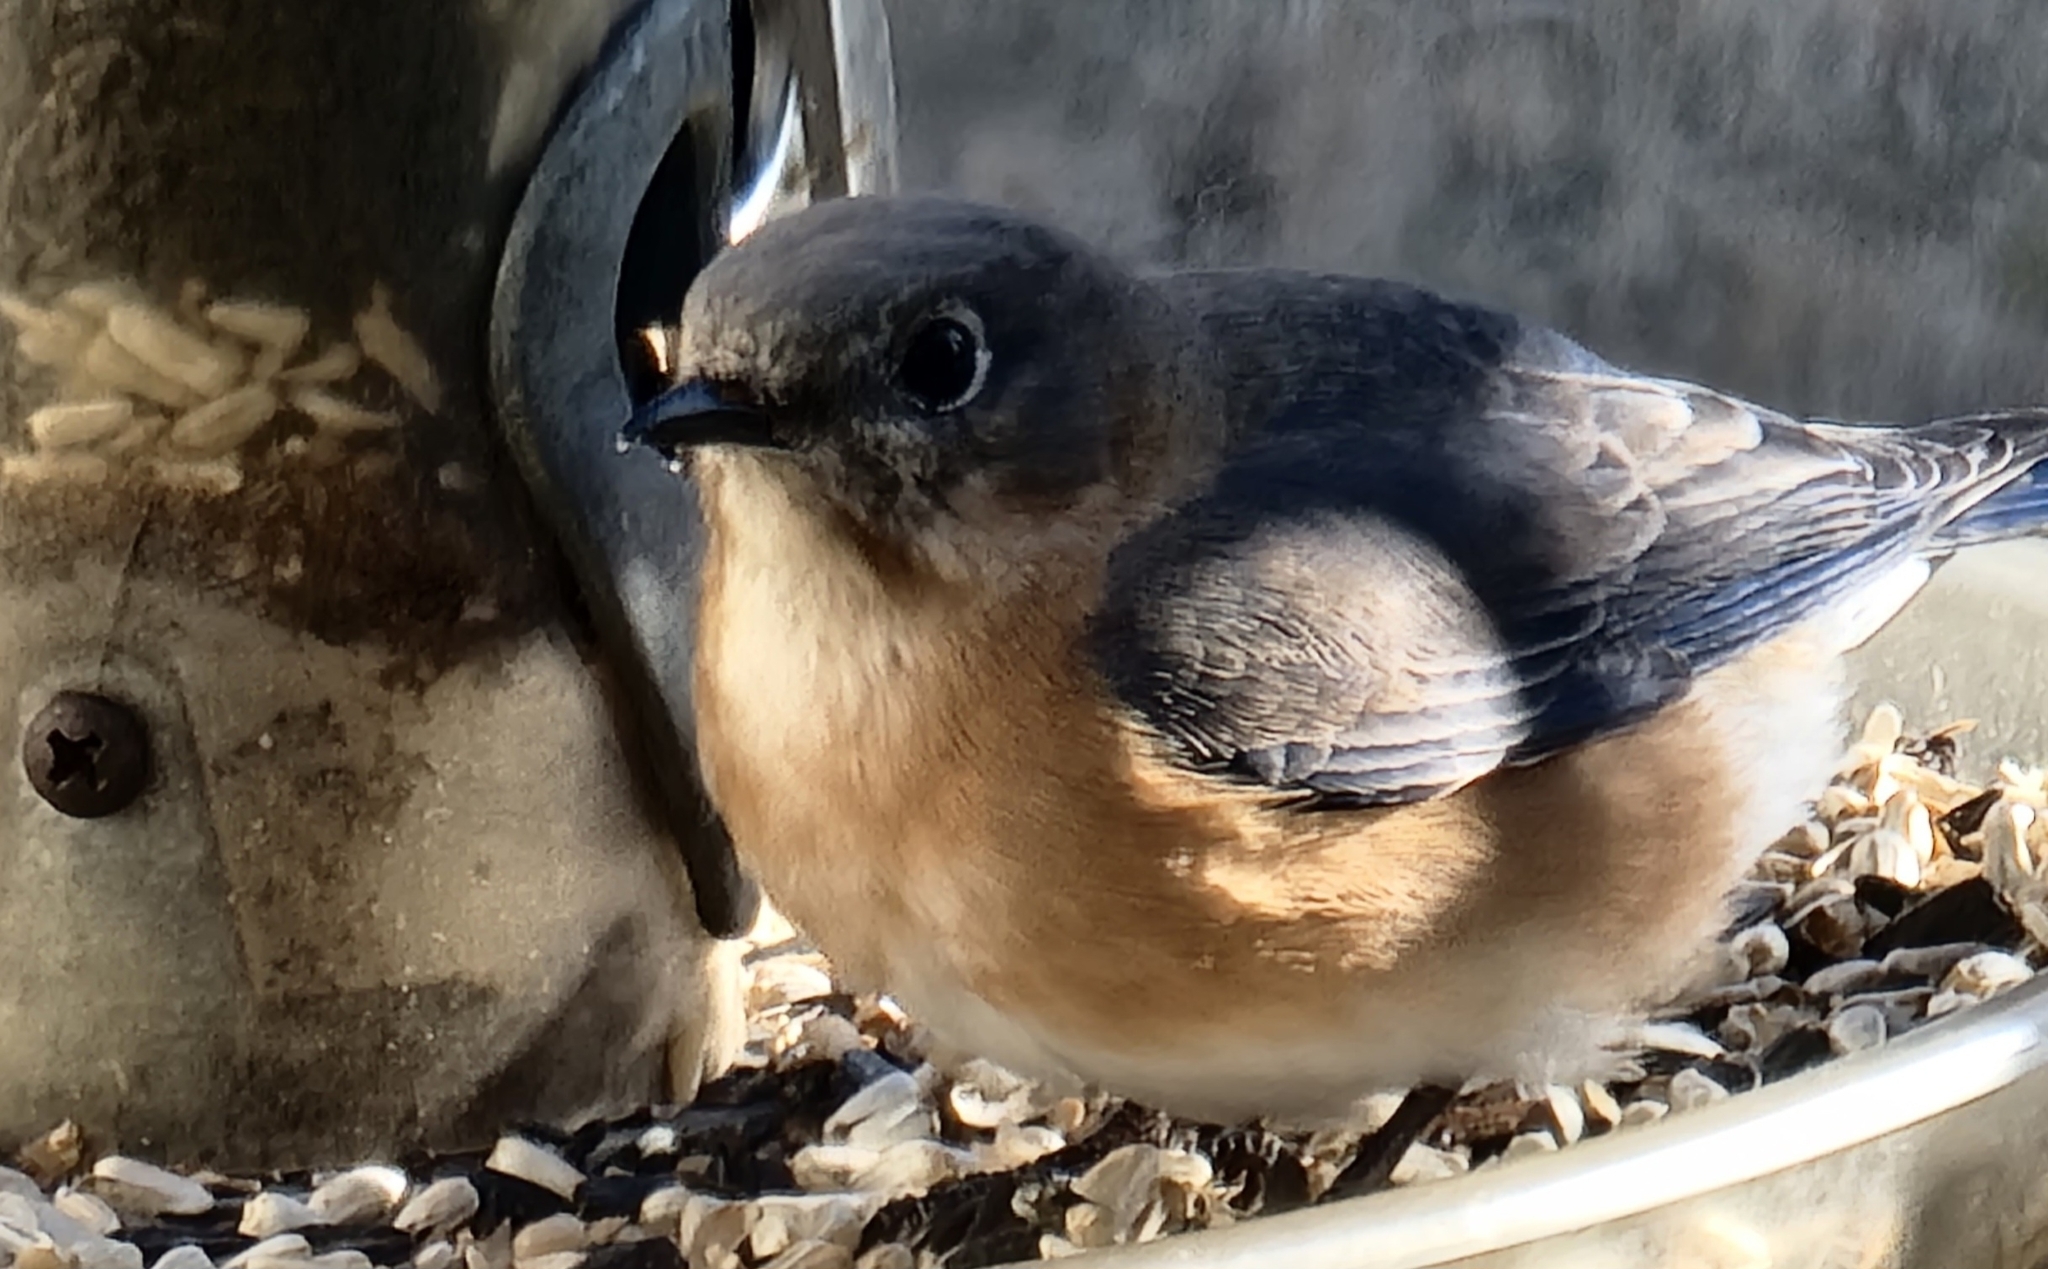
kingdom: Animalia
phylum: Chordata
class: Aves
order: Passeriformes
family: Turdidae
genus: Sialia
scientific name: Sialia sialis
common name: Eastern bluebird
